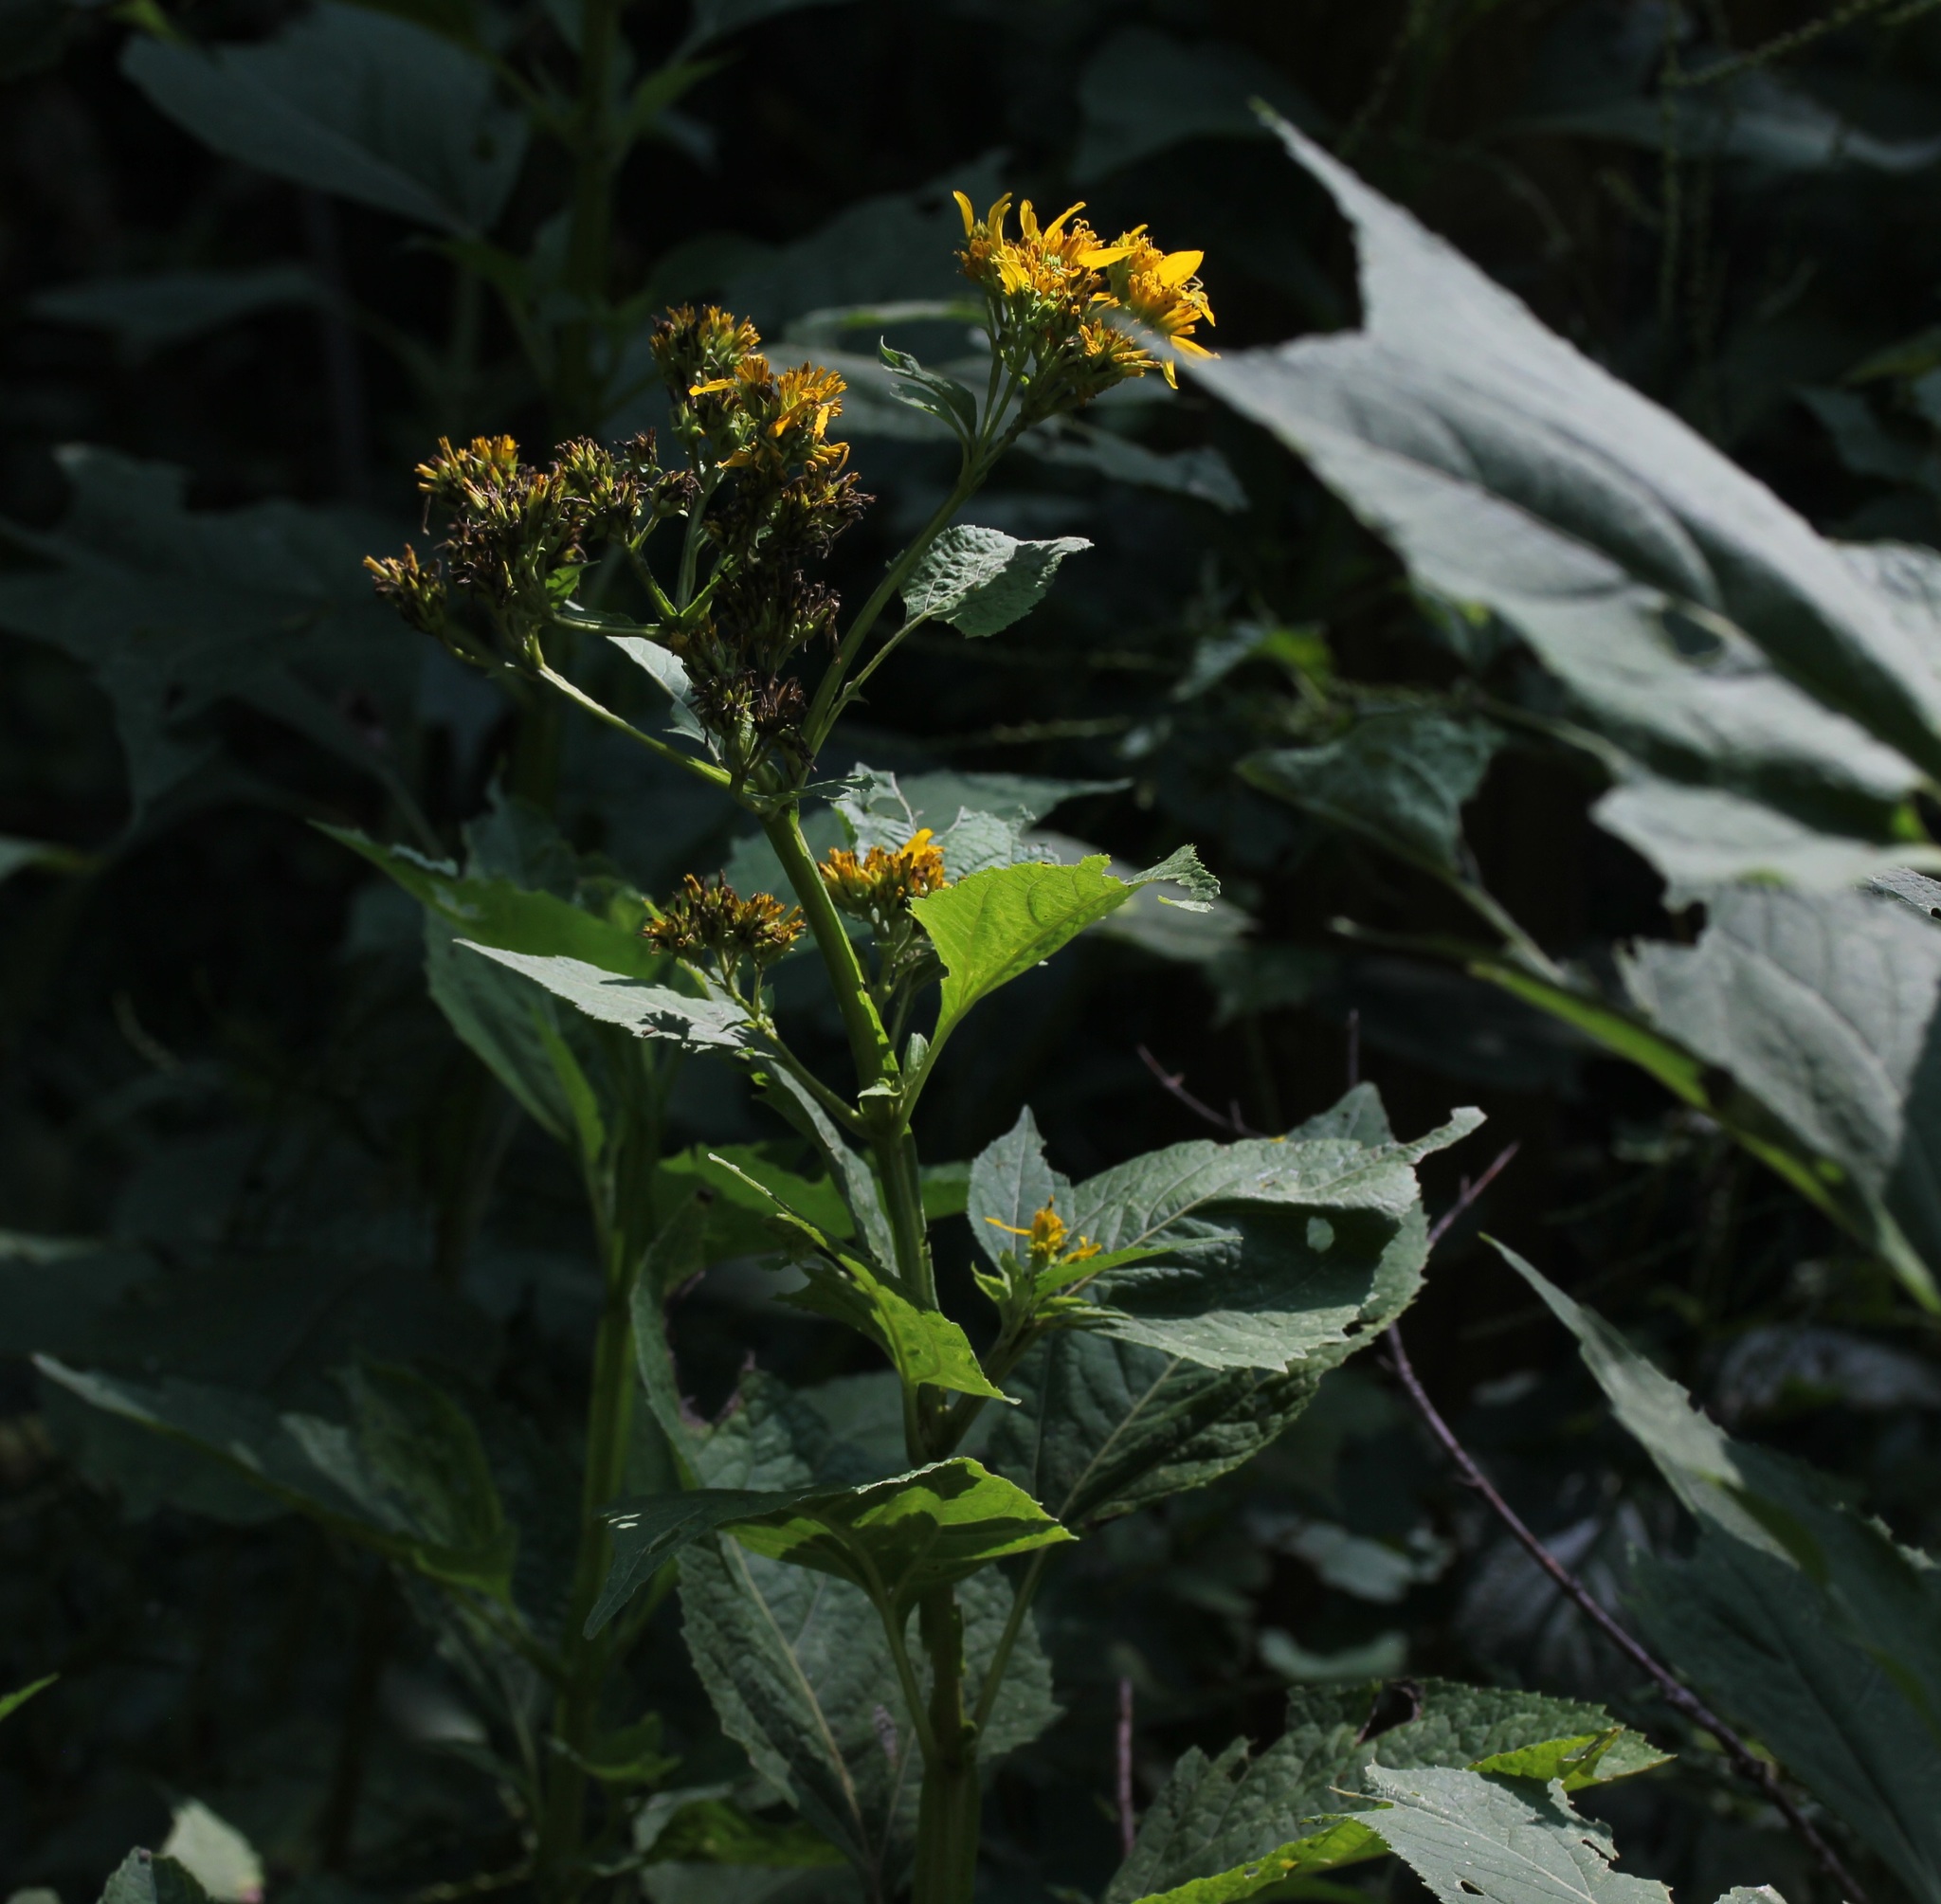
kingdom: Plantae
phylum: Tracheophyta
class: Magnoliopsida
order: Asterales
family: Asteraceae
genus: Verbesina
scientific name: Verbesina occidentalis
